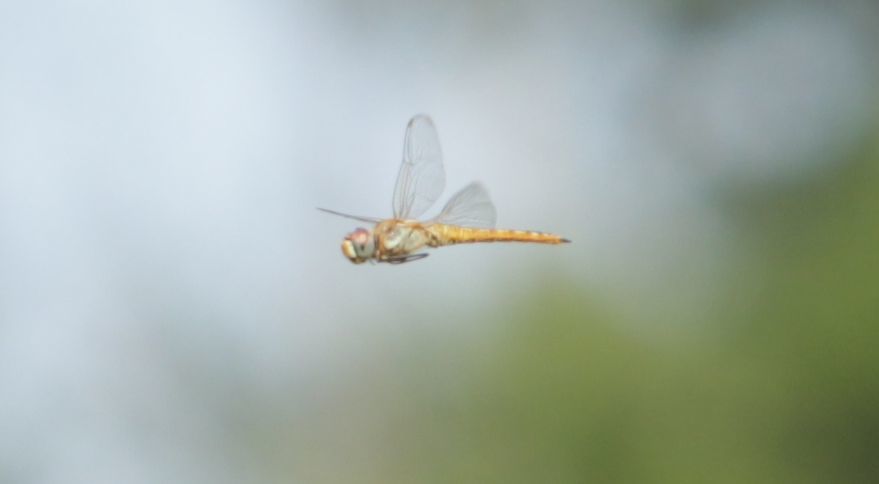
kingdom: Animalia
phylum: Arthropoda
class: Insecta
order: Odonata
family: Libellulidae
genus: Pantala
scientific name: Pantala flavescens
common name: Wandering glider
